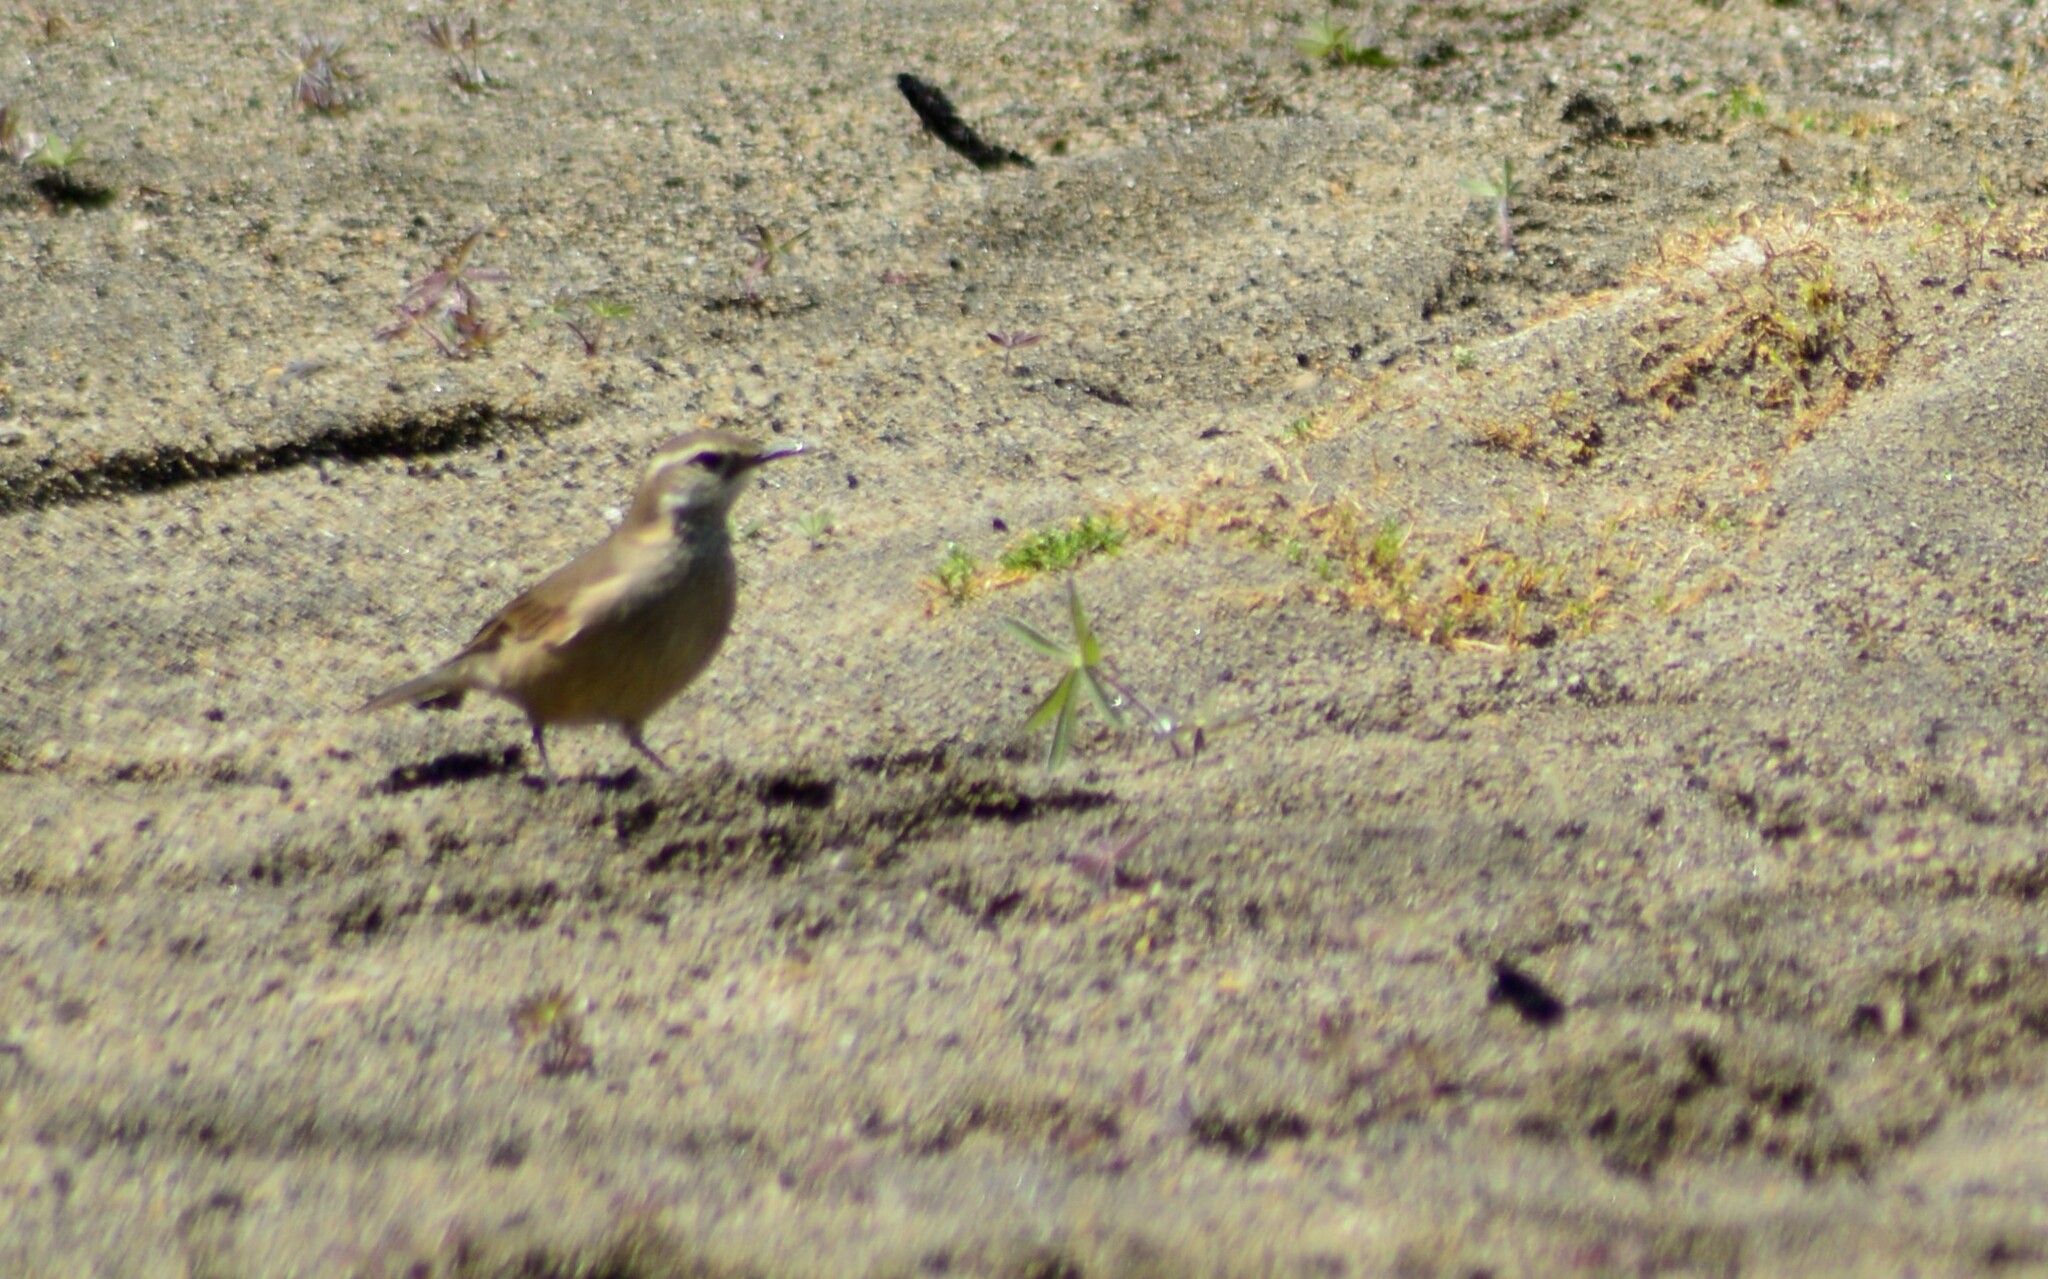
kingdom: Animalia
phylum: Chordata
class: Aves
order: Passeriformes
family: Furnariidae
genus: Cinclodes
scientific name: Cinclodes fuscus
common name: Buff-winged cinclodes
